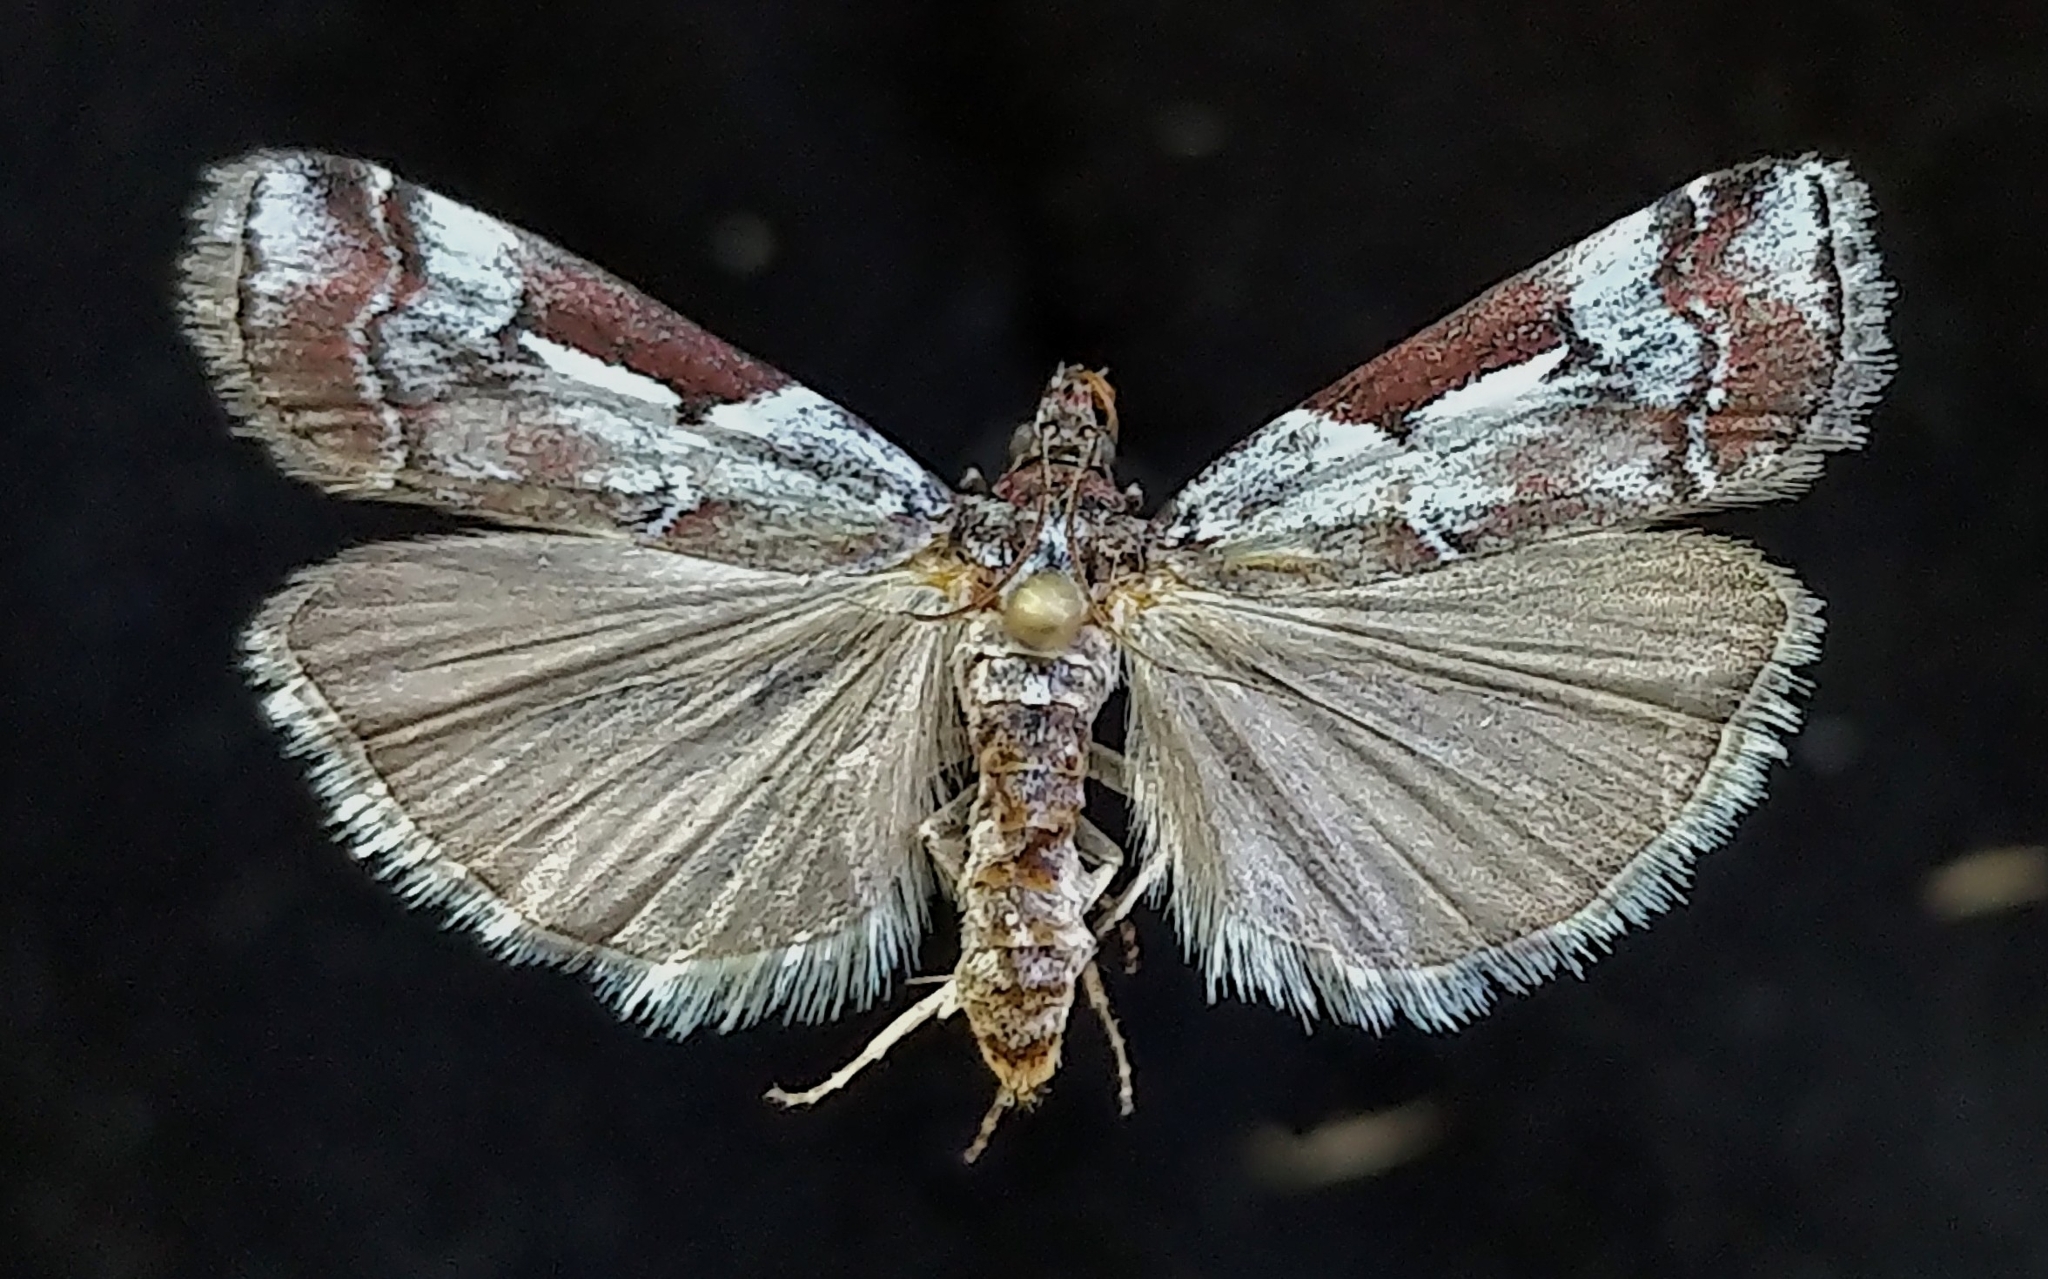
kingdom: Animalia
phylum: Arthropoda
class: Insecta
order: Lepidoptera
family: Pyralidae
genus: Ambesa
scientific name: Ambesa laetella
